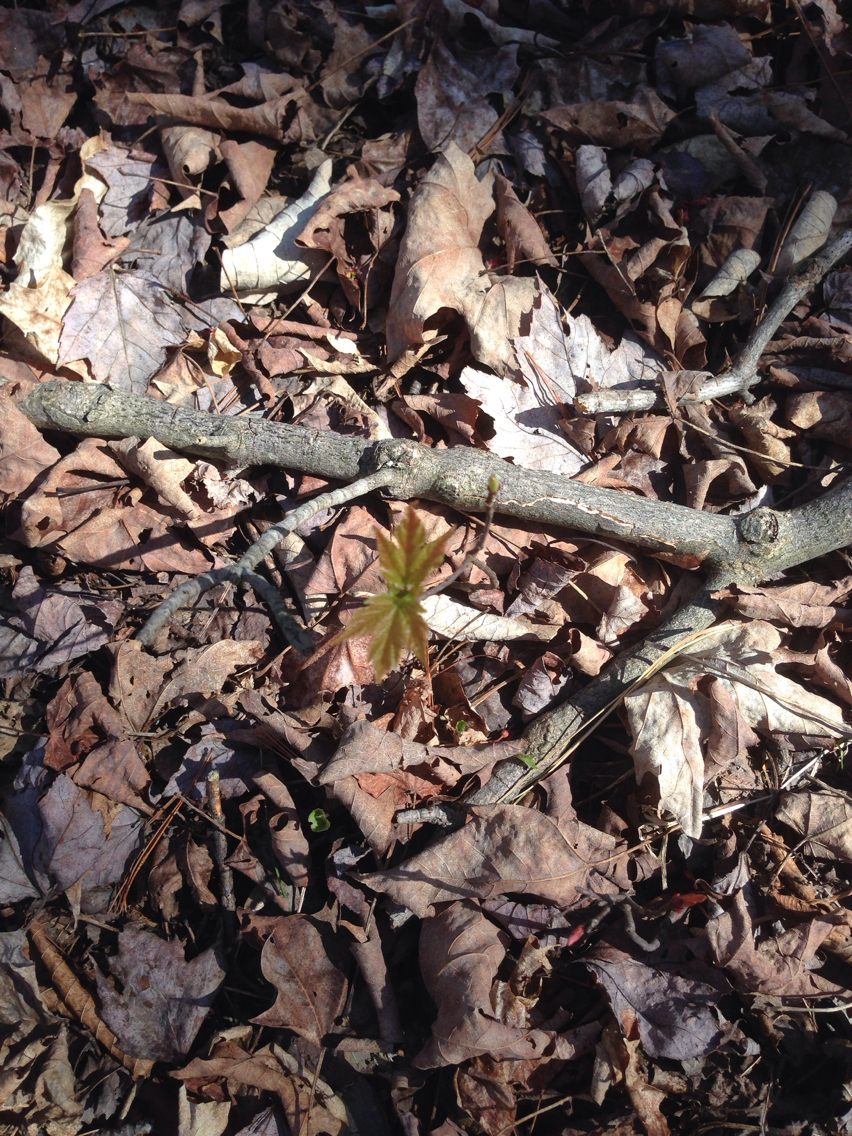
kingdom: Plantae
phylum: Tracheophyta
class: Magnoliopsida
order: Sapindales
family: Sapindaceae
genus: Acer
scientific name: Acer saccharum
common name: Sugar maple
